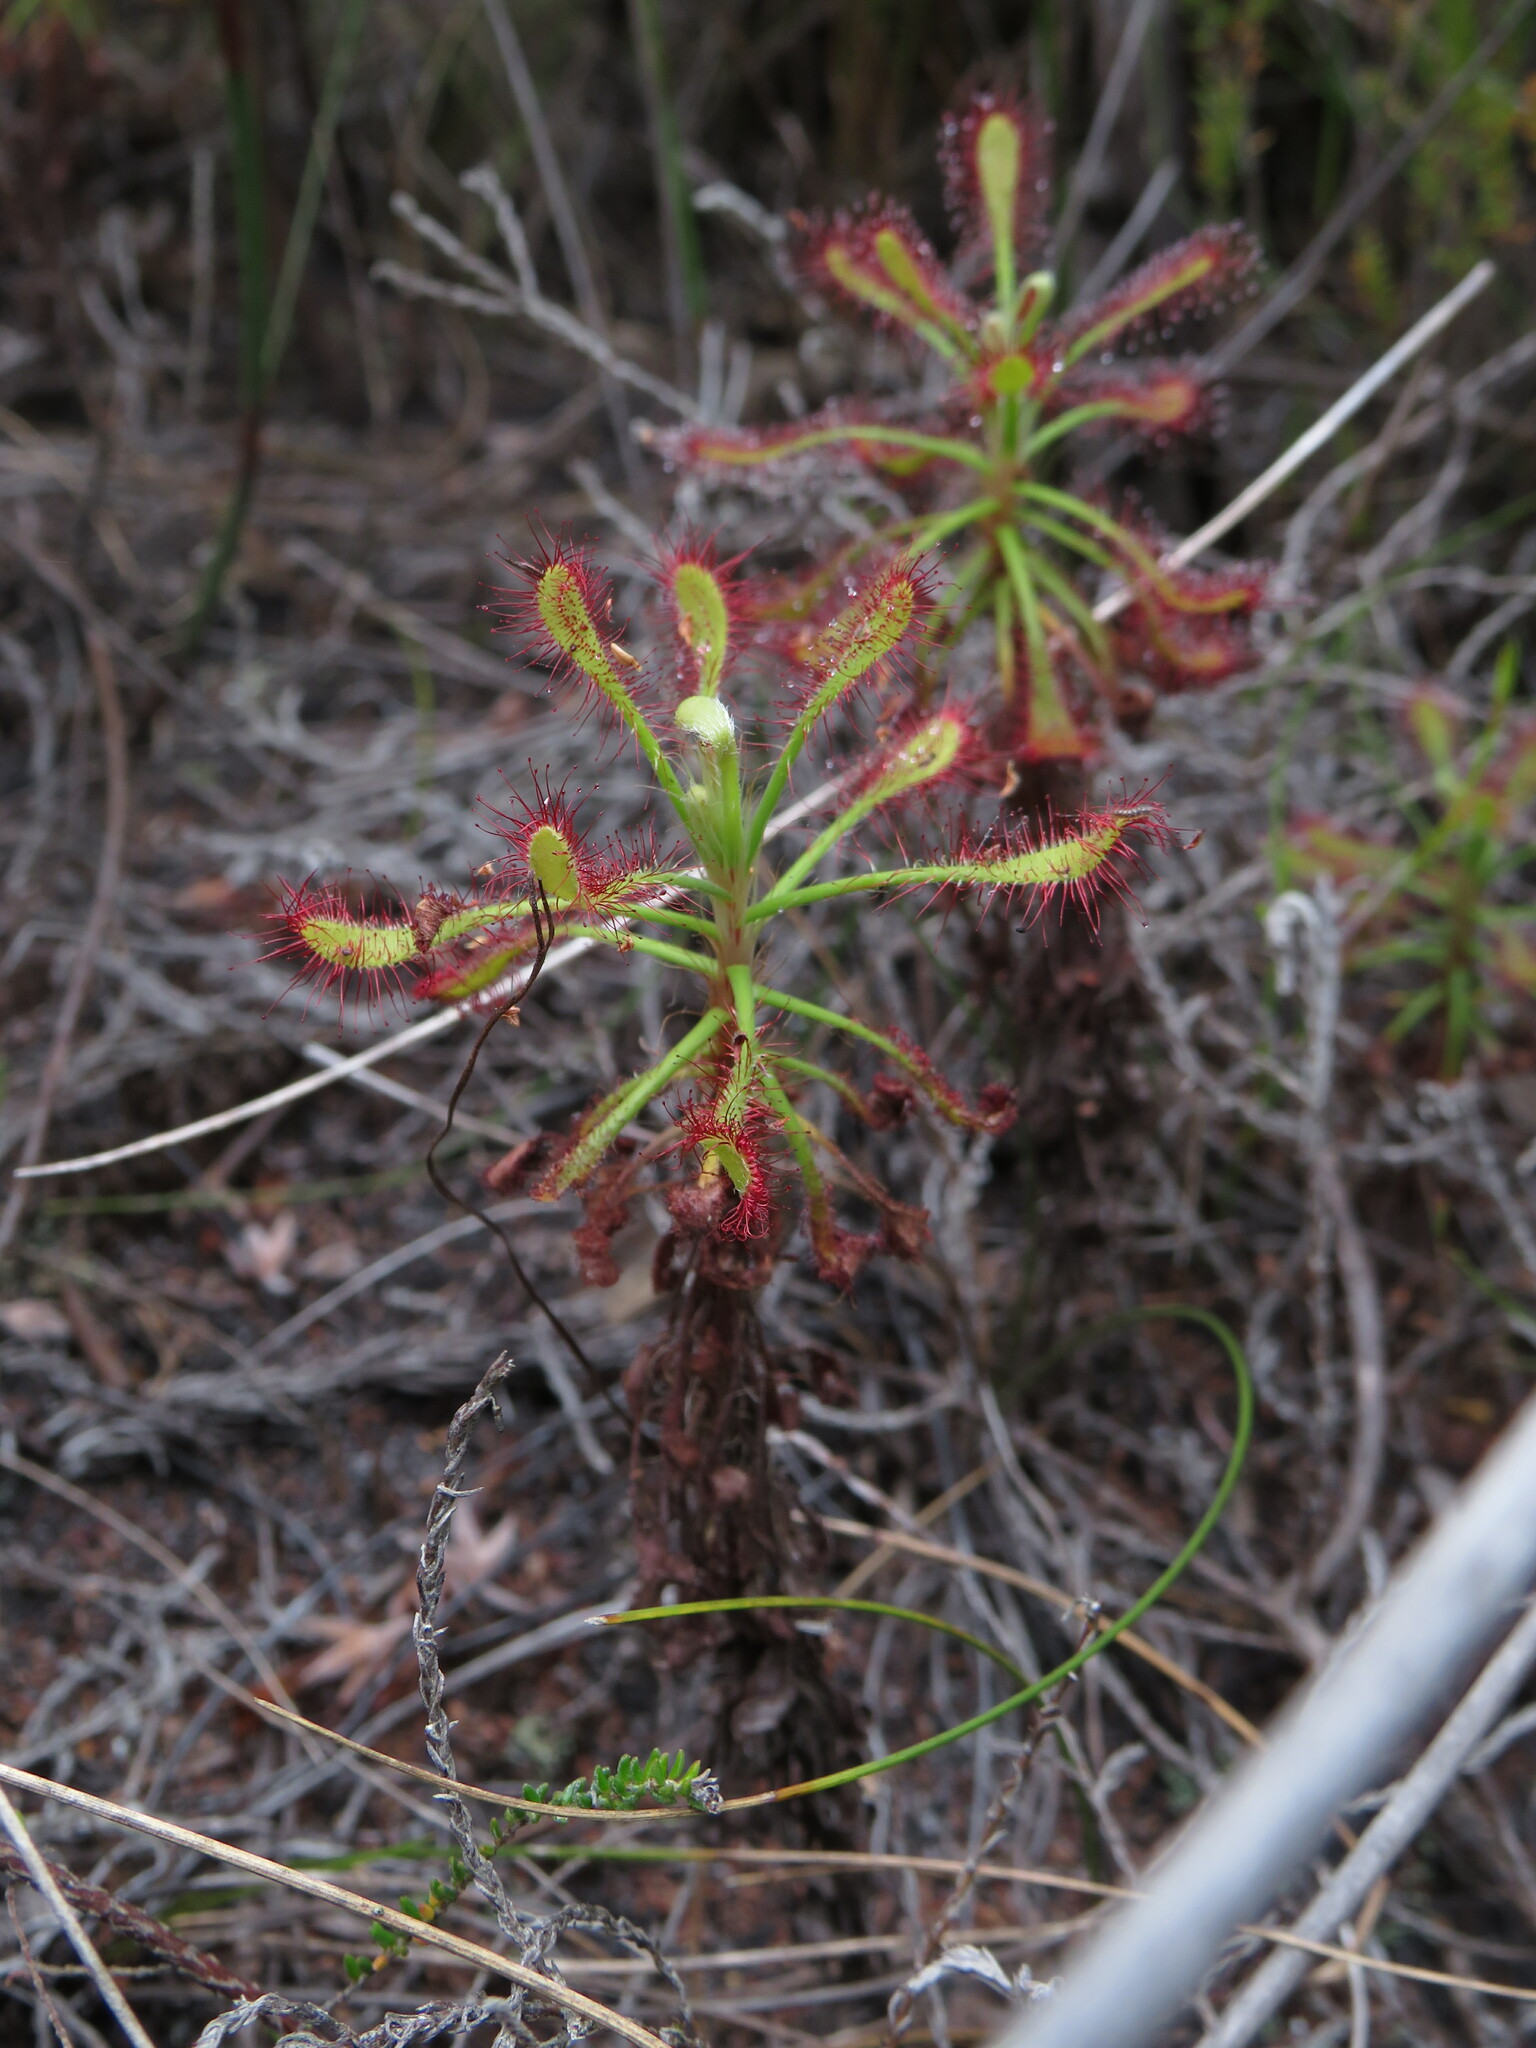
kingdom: Plantae
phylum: Tracheophyta
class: Magnoliopsida
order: Caryophyllales
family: Droseraceae
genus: Drosera
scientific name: Drosera glabripes
